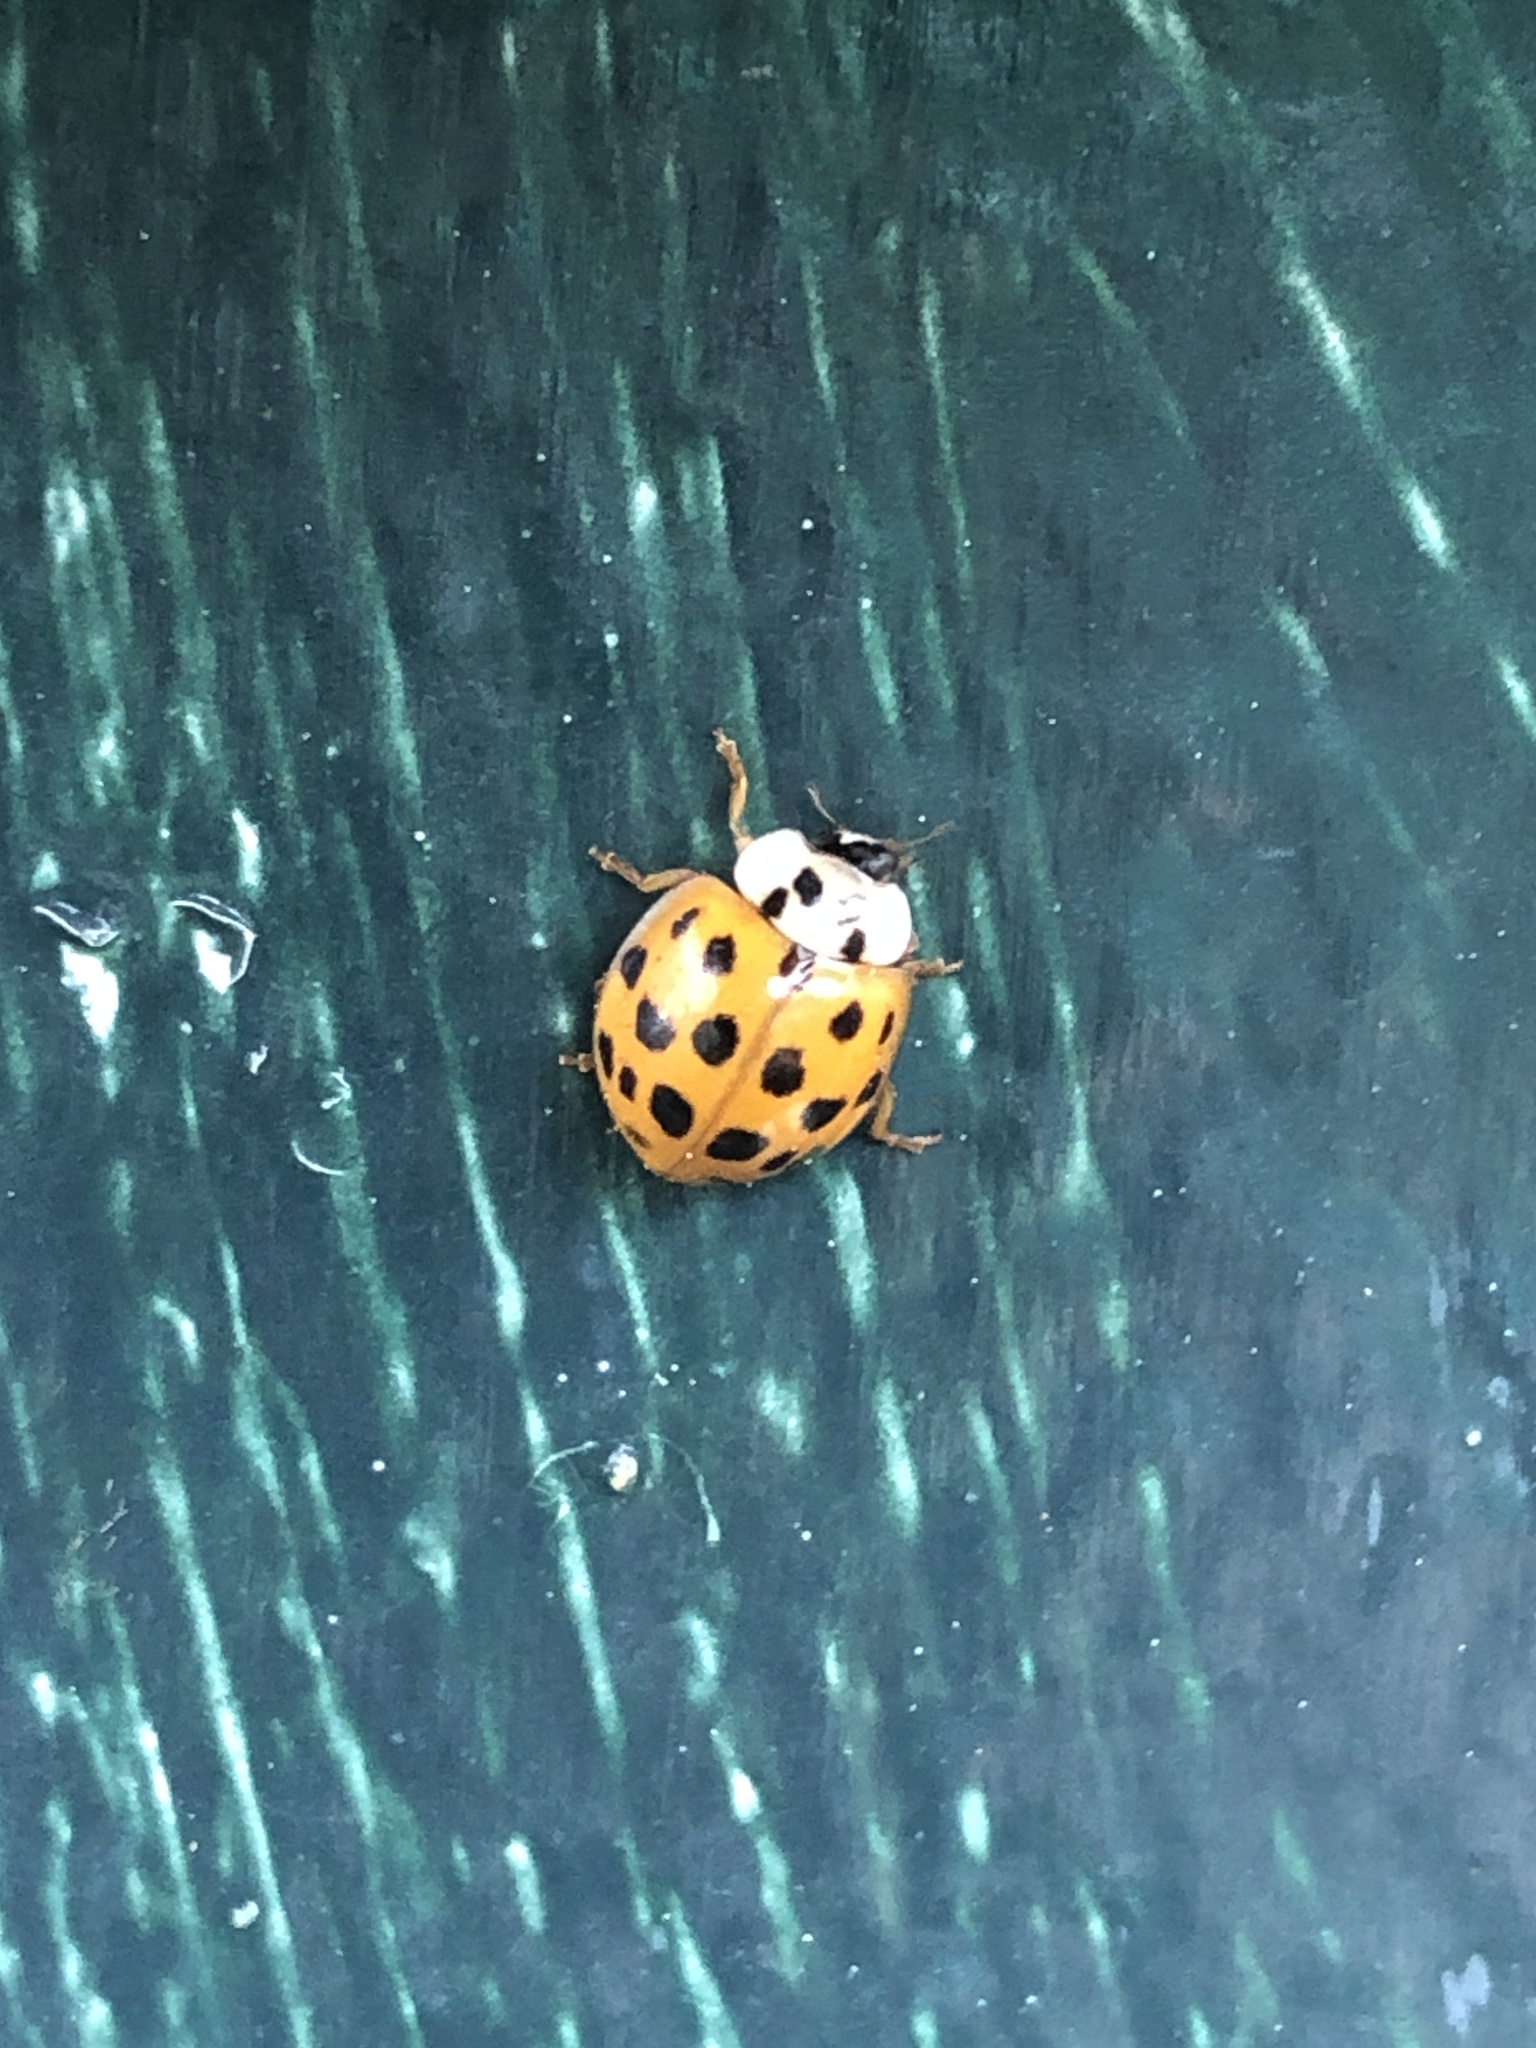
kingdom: Animalia
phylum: Arthropoda
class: Insecta
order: Coleoptera
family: Coccinellidae
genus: Harmonia
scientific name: Harmonia axyridis
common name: Harlequin ladybird
